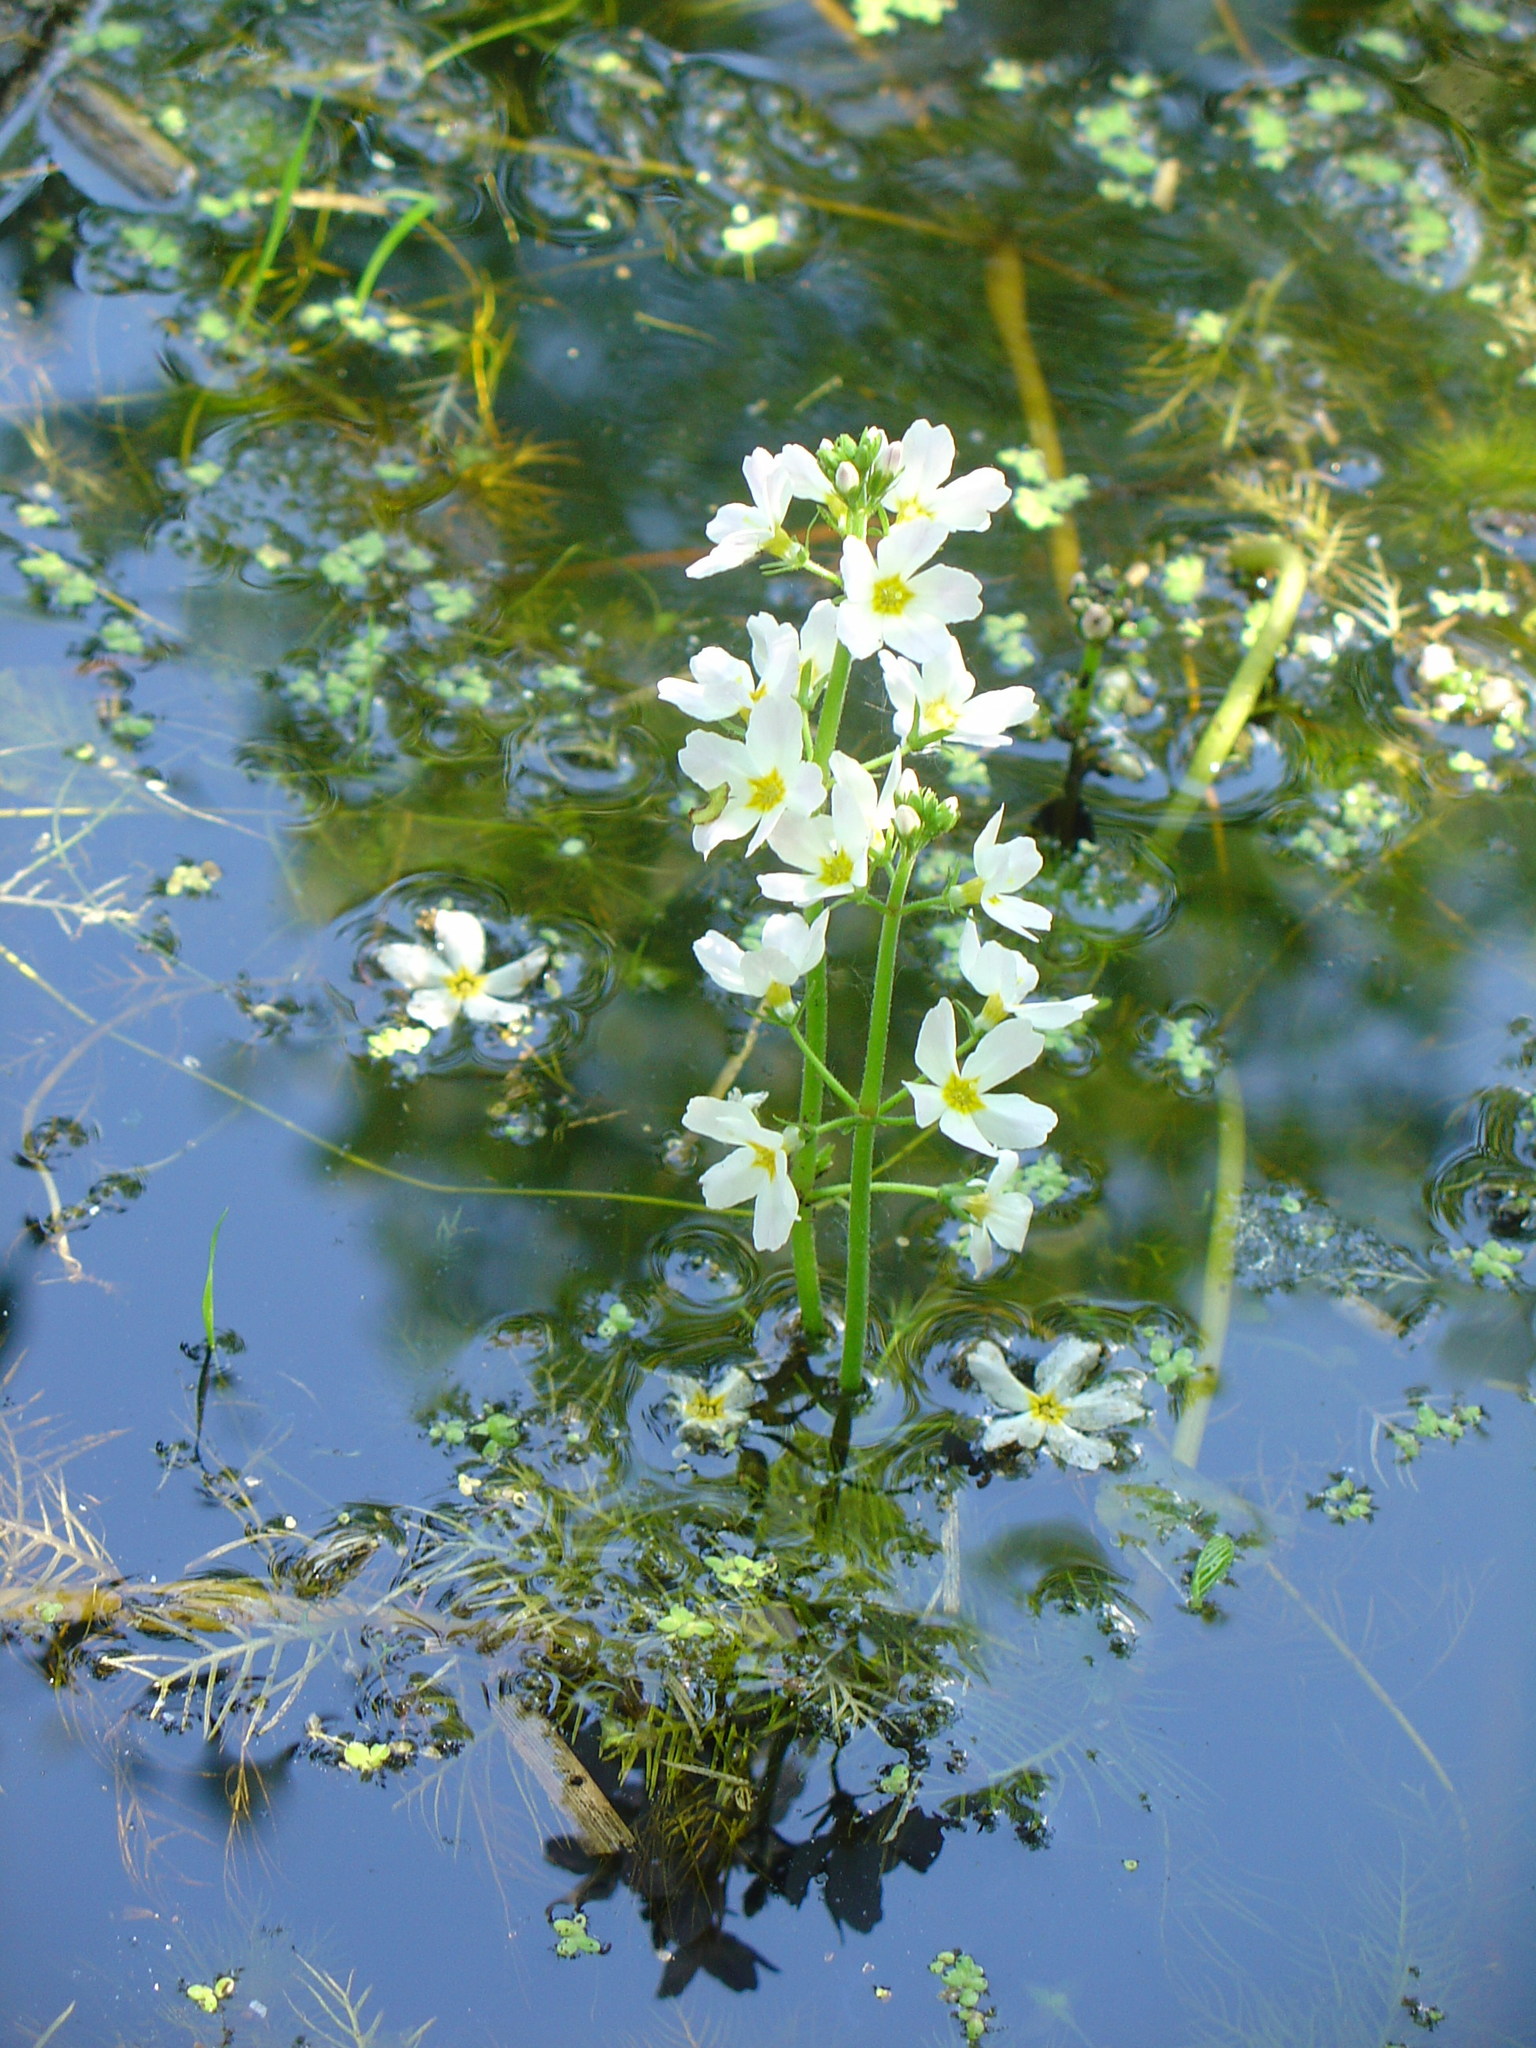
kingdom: Plantae
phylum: Tracheophyta
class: Magnoliopsida
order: Ericales
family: Primulaceae
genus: Hottonia
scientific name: Hottonia palustris
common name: Water-violet
